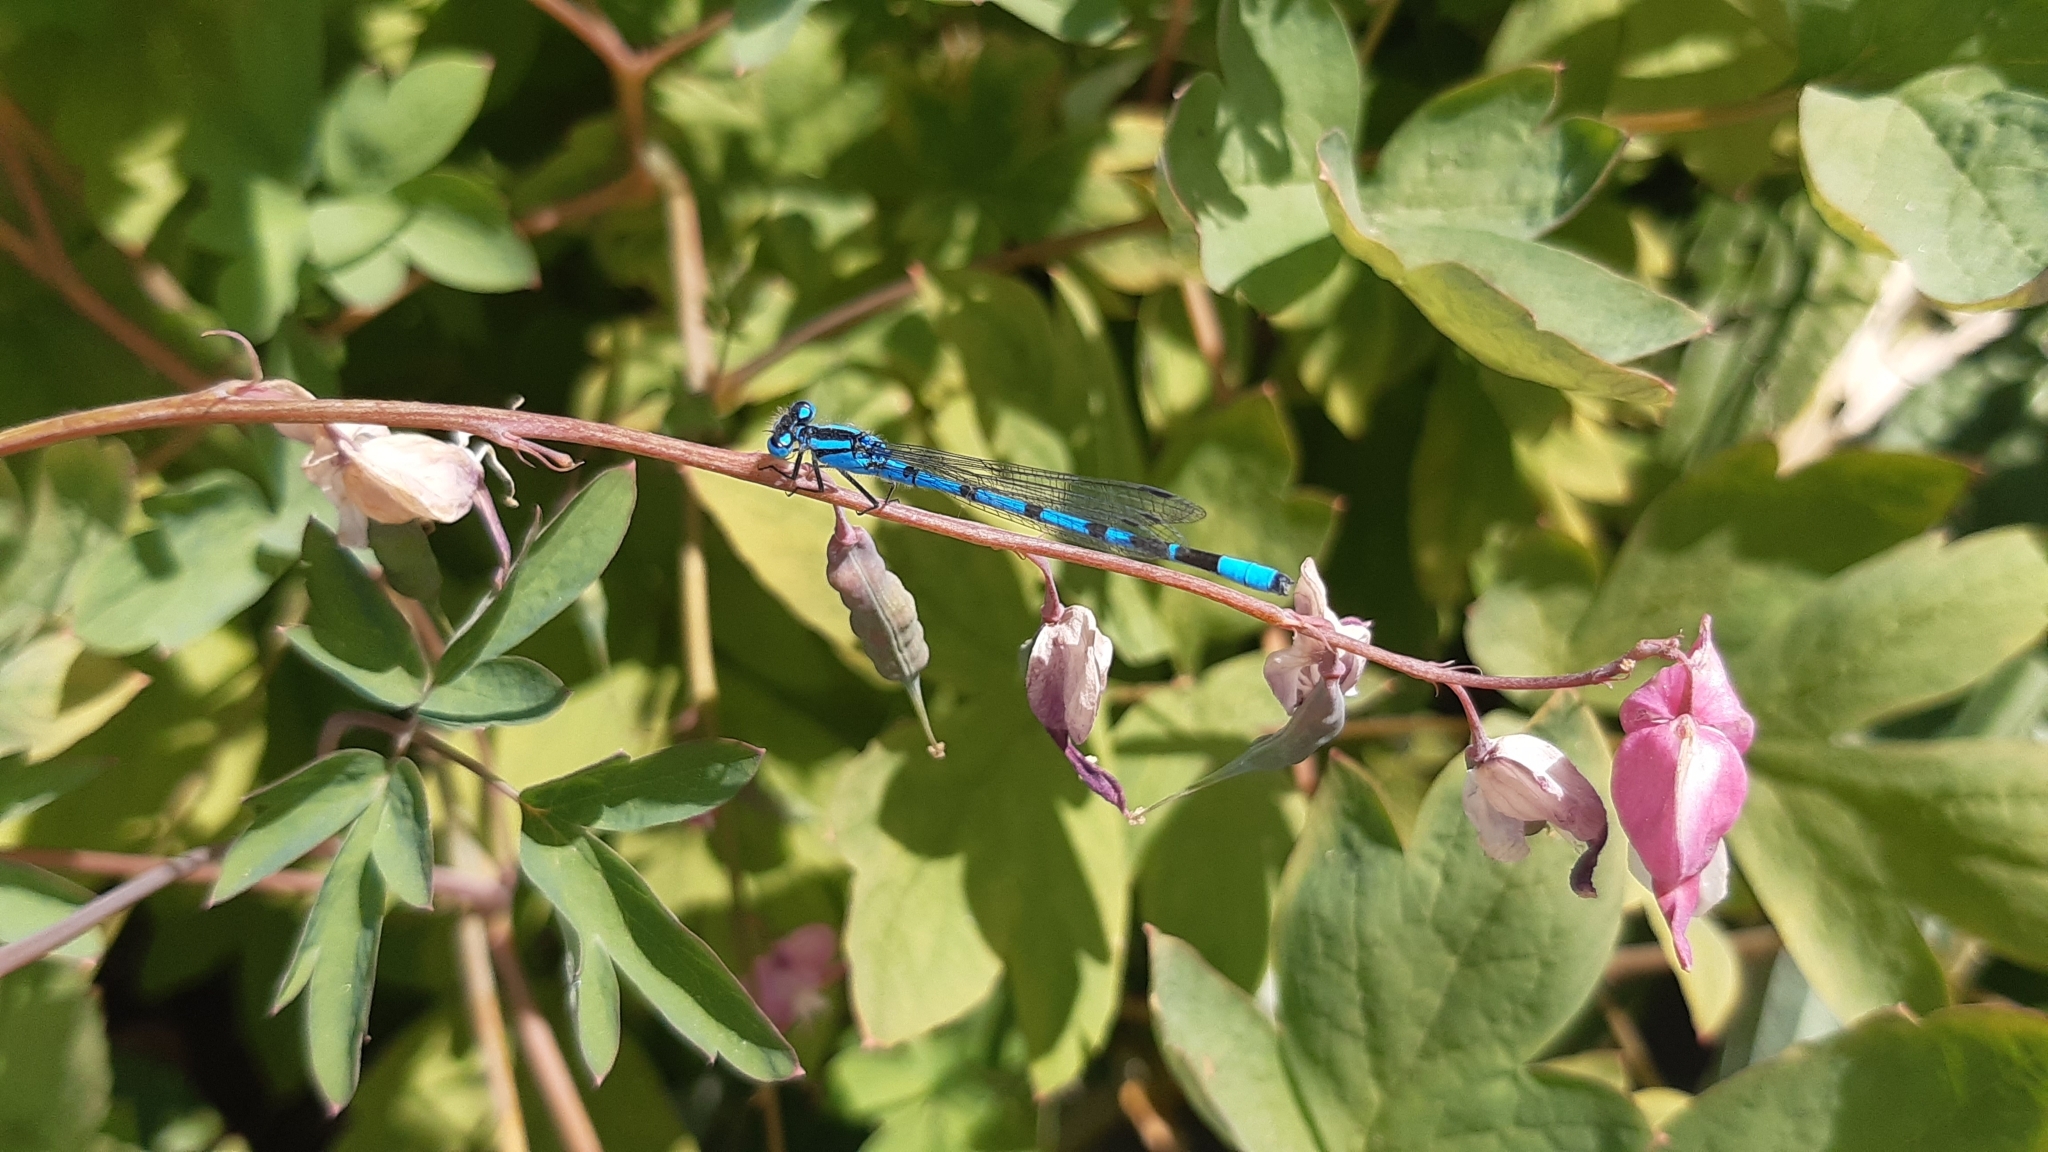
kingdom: Animalia
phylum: Arthropoda
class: Insecta
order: Odonata
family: Coenagrionidae
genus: Enallagma
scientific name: Enallagma cyathigerum
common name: Common blue damselfly
